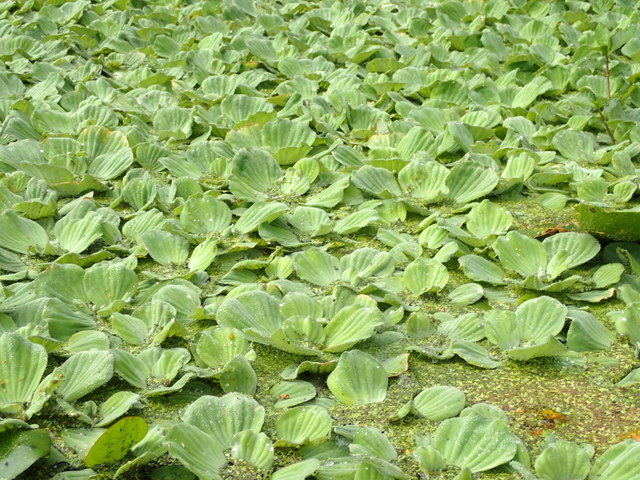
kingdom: Plantae
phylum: Tracheophyta
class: Liliopsida
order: Alismatales
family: Araceae
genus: Pistia
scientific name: Pistia stratiotes
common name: Water lettuce
